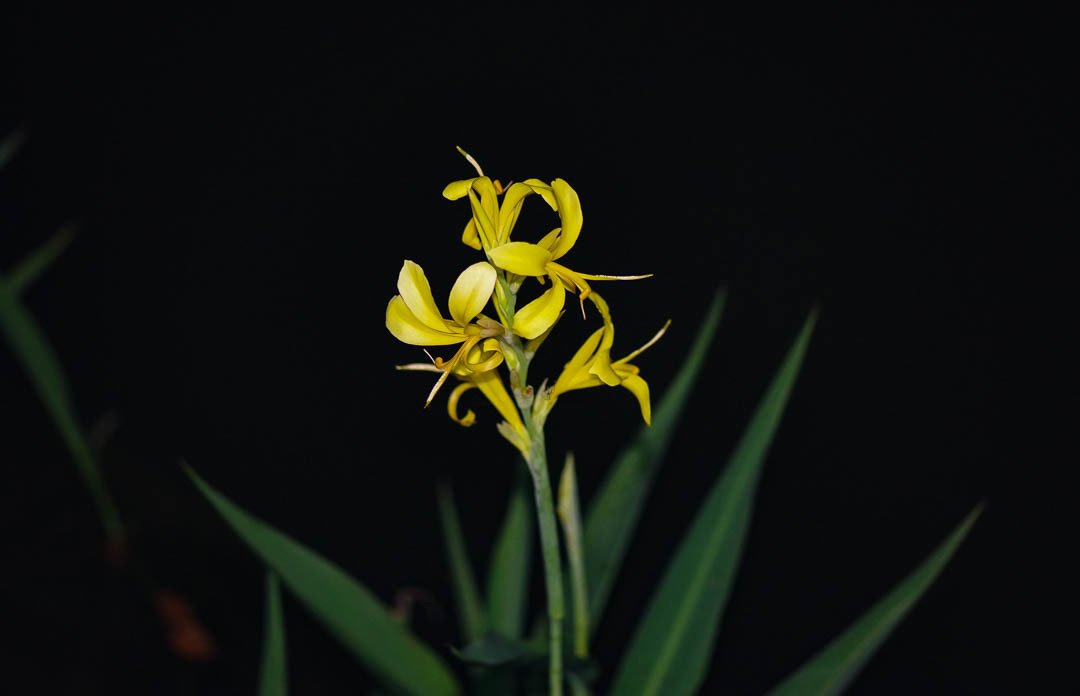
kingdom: Plantae
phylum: Tracheophyta
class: Liliopsida
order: Zingiberales
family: Cannaceae
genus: Canna
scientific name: Canna glauca
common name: Louisiana canna
